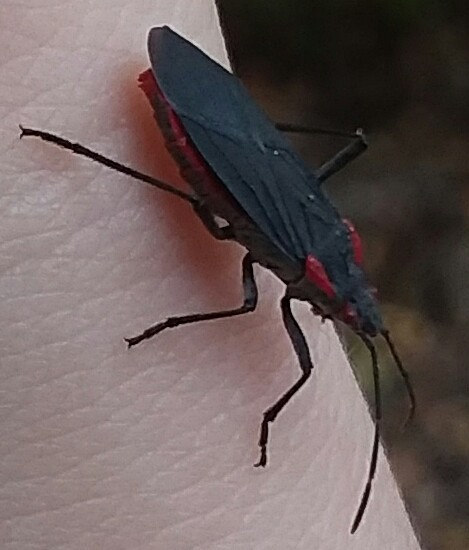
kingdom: Animalia
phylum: Arthropoda
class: Insecta
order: Hemiptera
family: Rhopalidae
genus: Jadera
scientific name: Jadera haematoloma
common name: Red-shouldered bug
